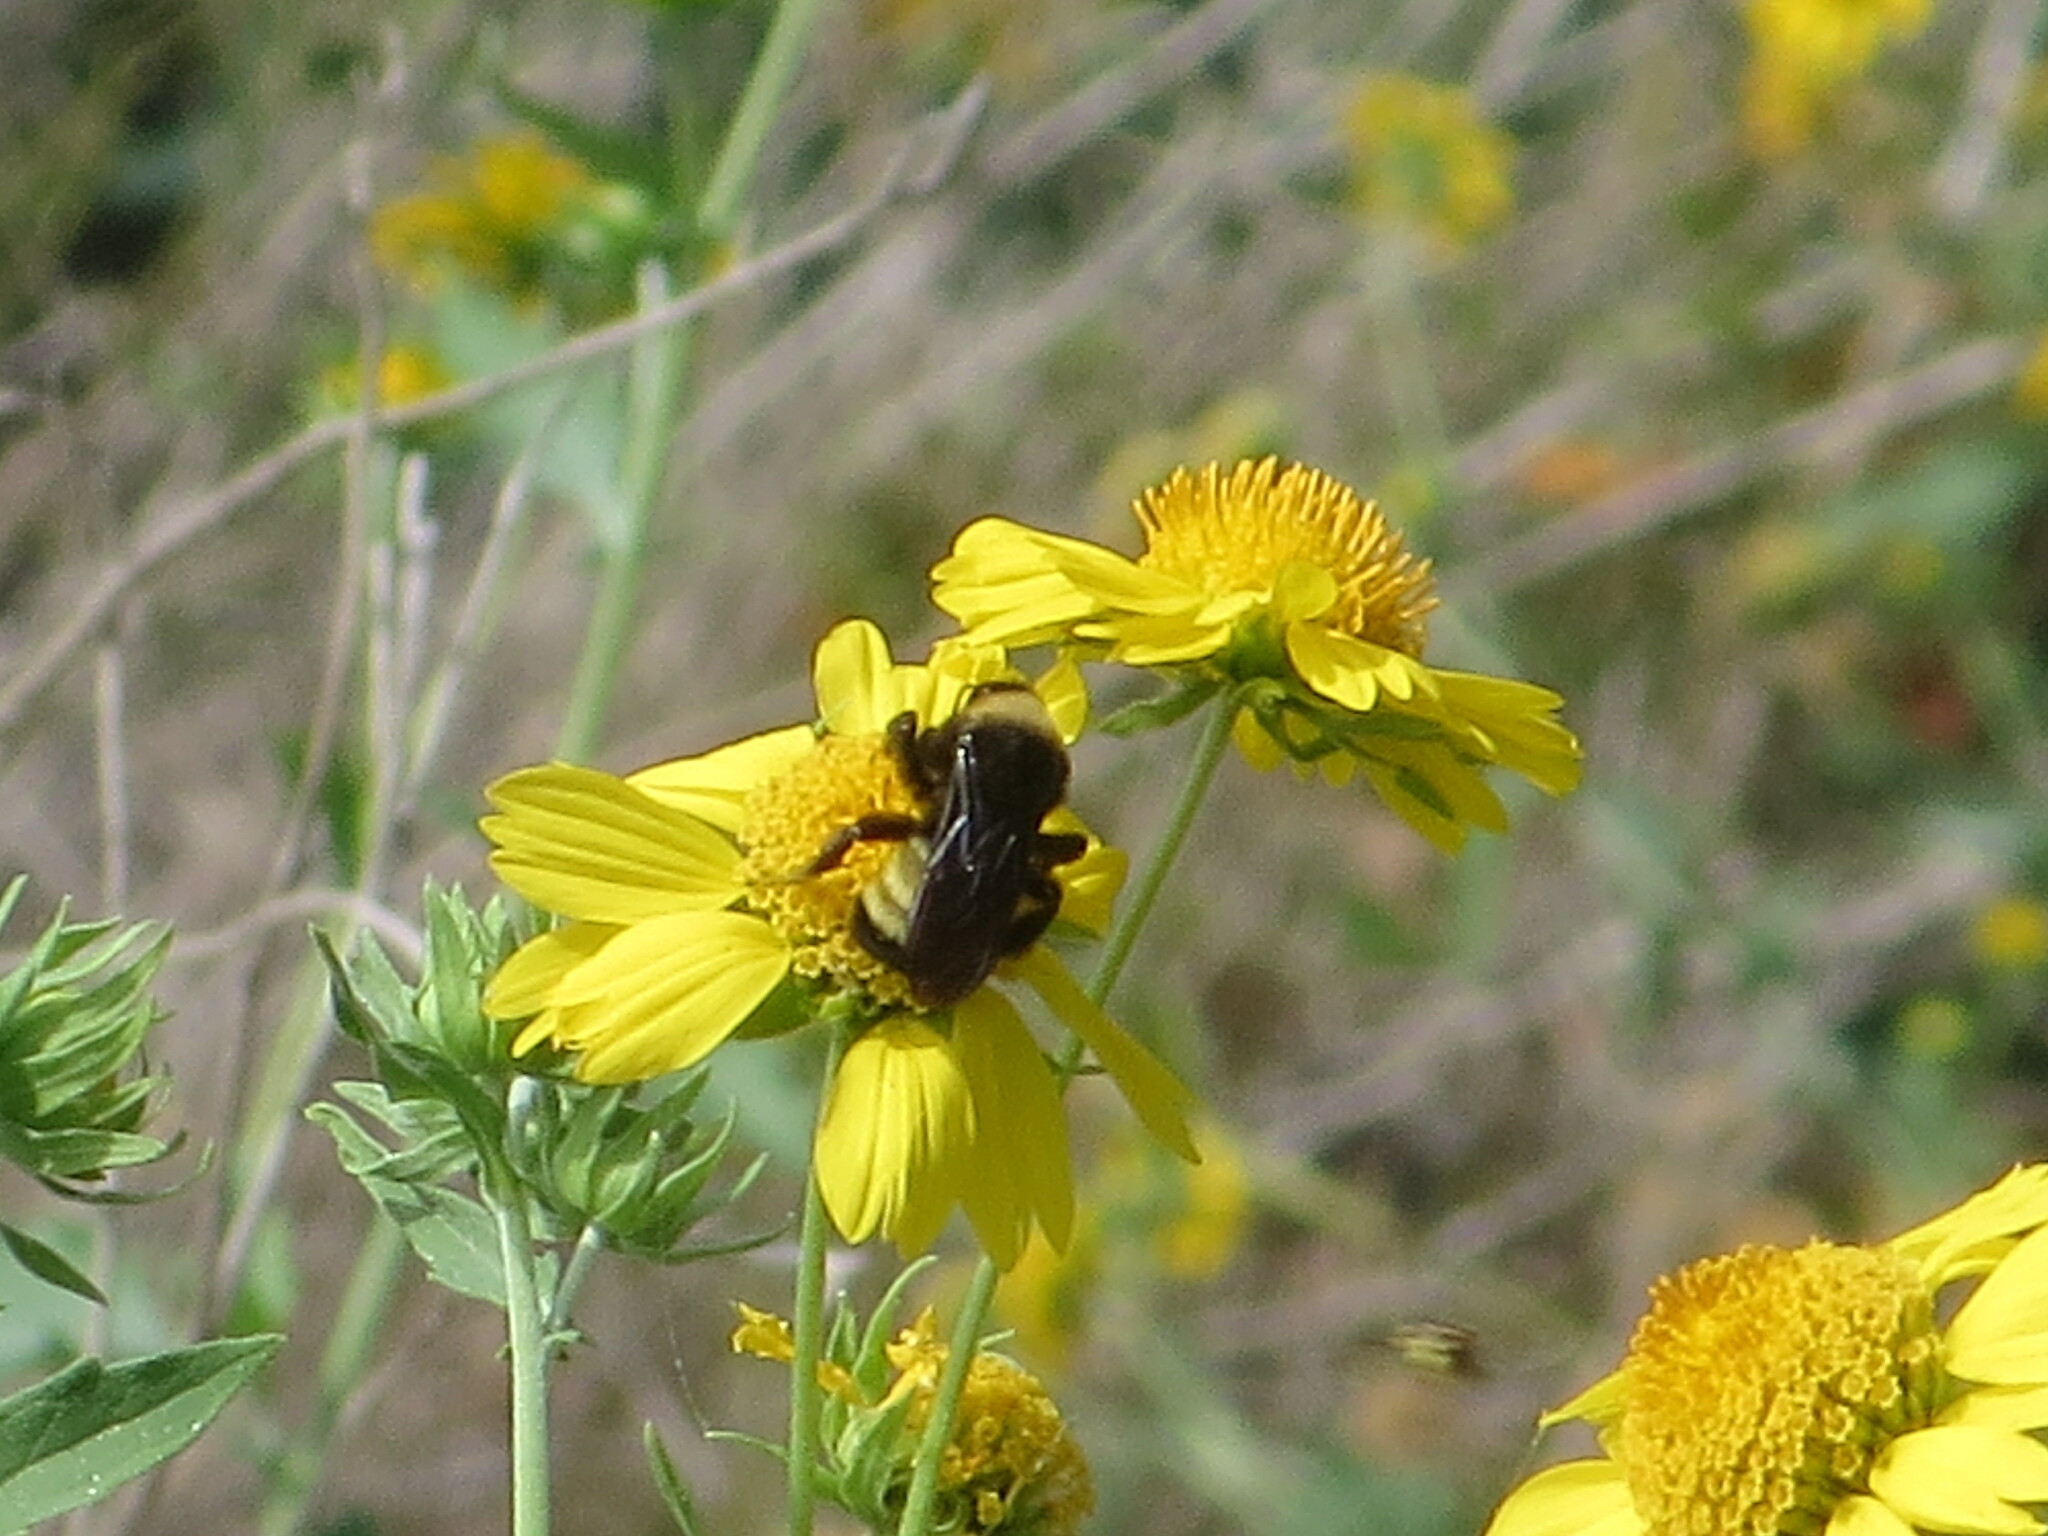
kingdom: Animalia
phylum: Arthropoda
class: Insecta
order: Hymenoptera
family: Apidae
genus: Bombus
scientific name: Bombus pensylvanicus
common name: Bumble bee
